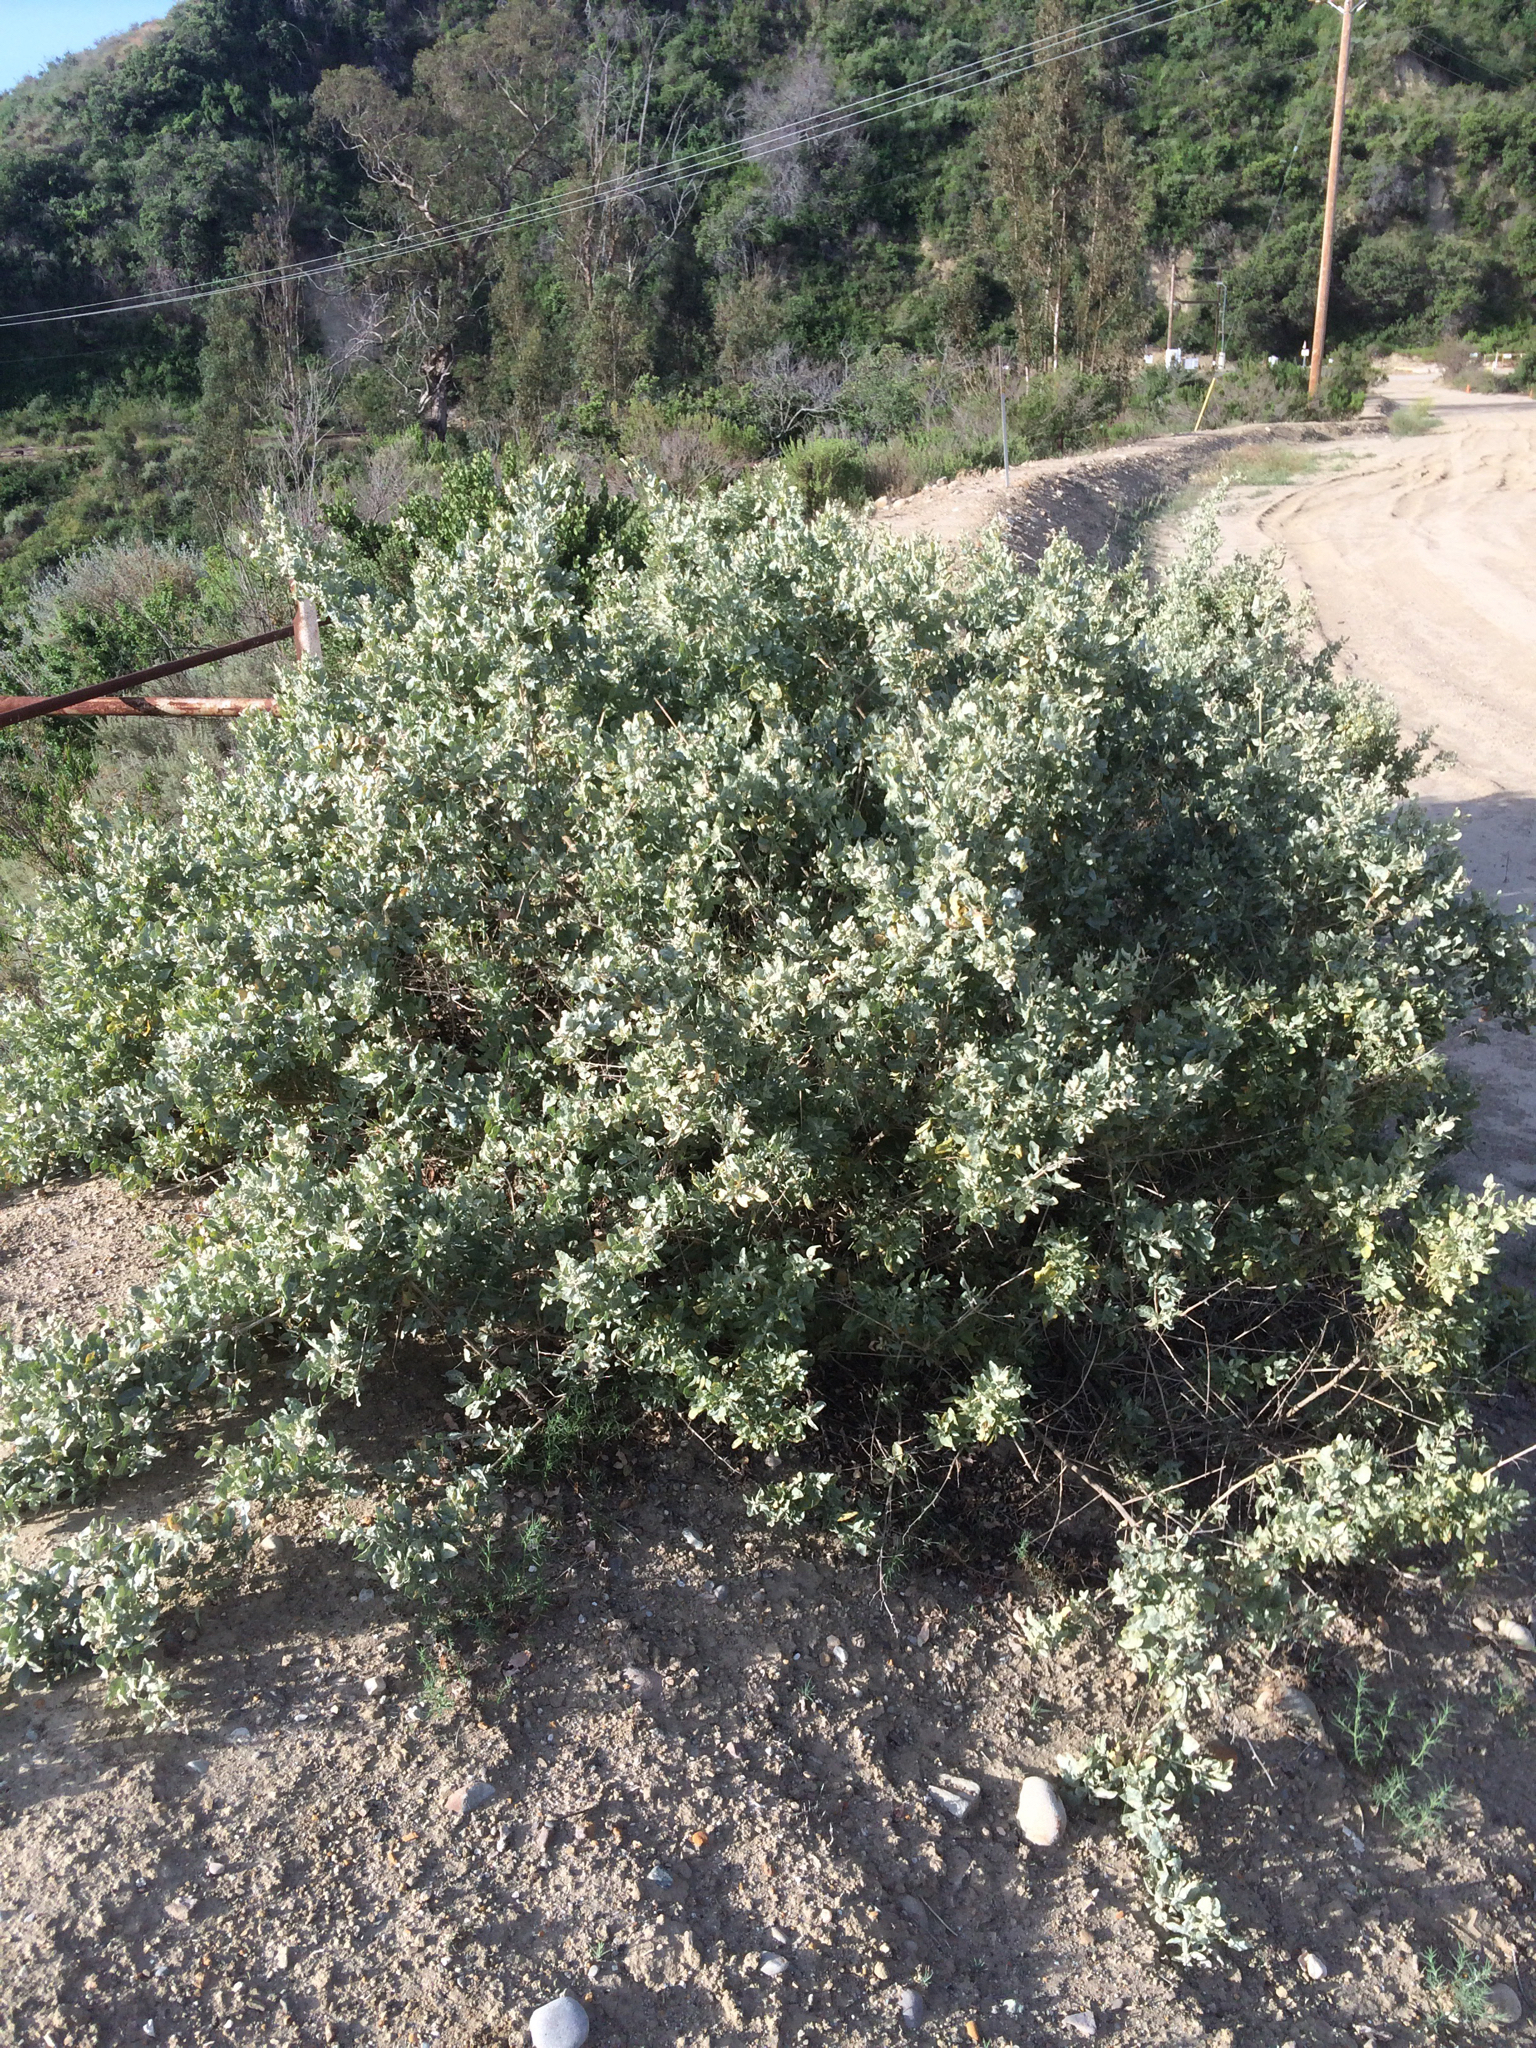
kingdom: Plantae
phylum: Tracheophyta
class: Magnoliopsida
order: Caryophyllales
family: Amaranthaceae
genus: Atriplex
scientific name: Atriplex lentiformis
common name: Big saltbush
